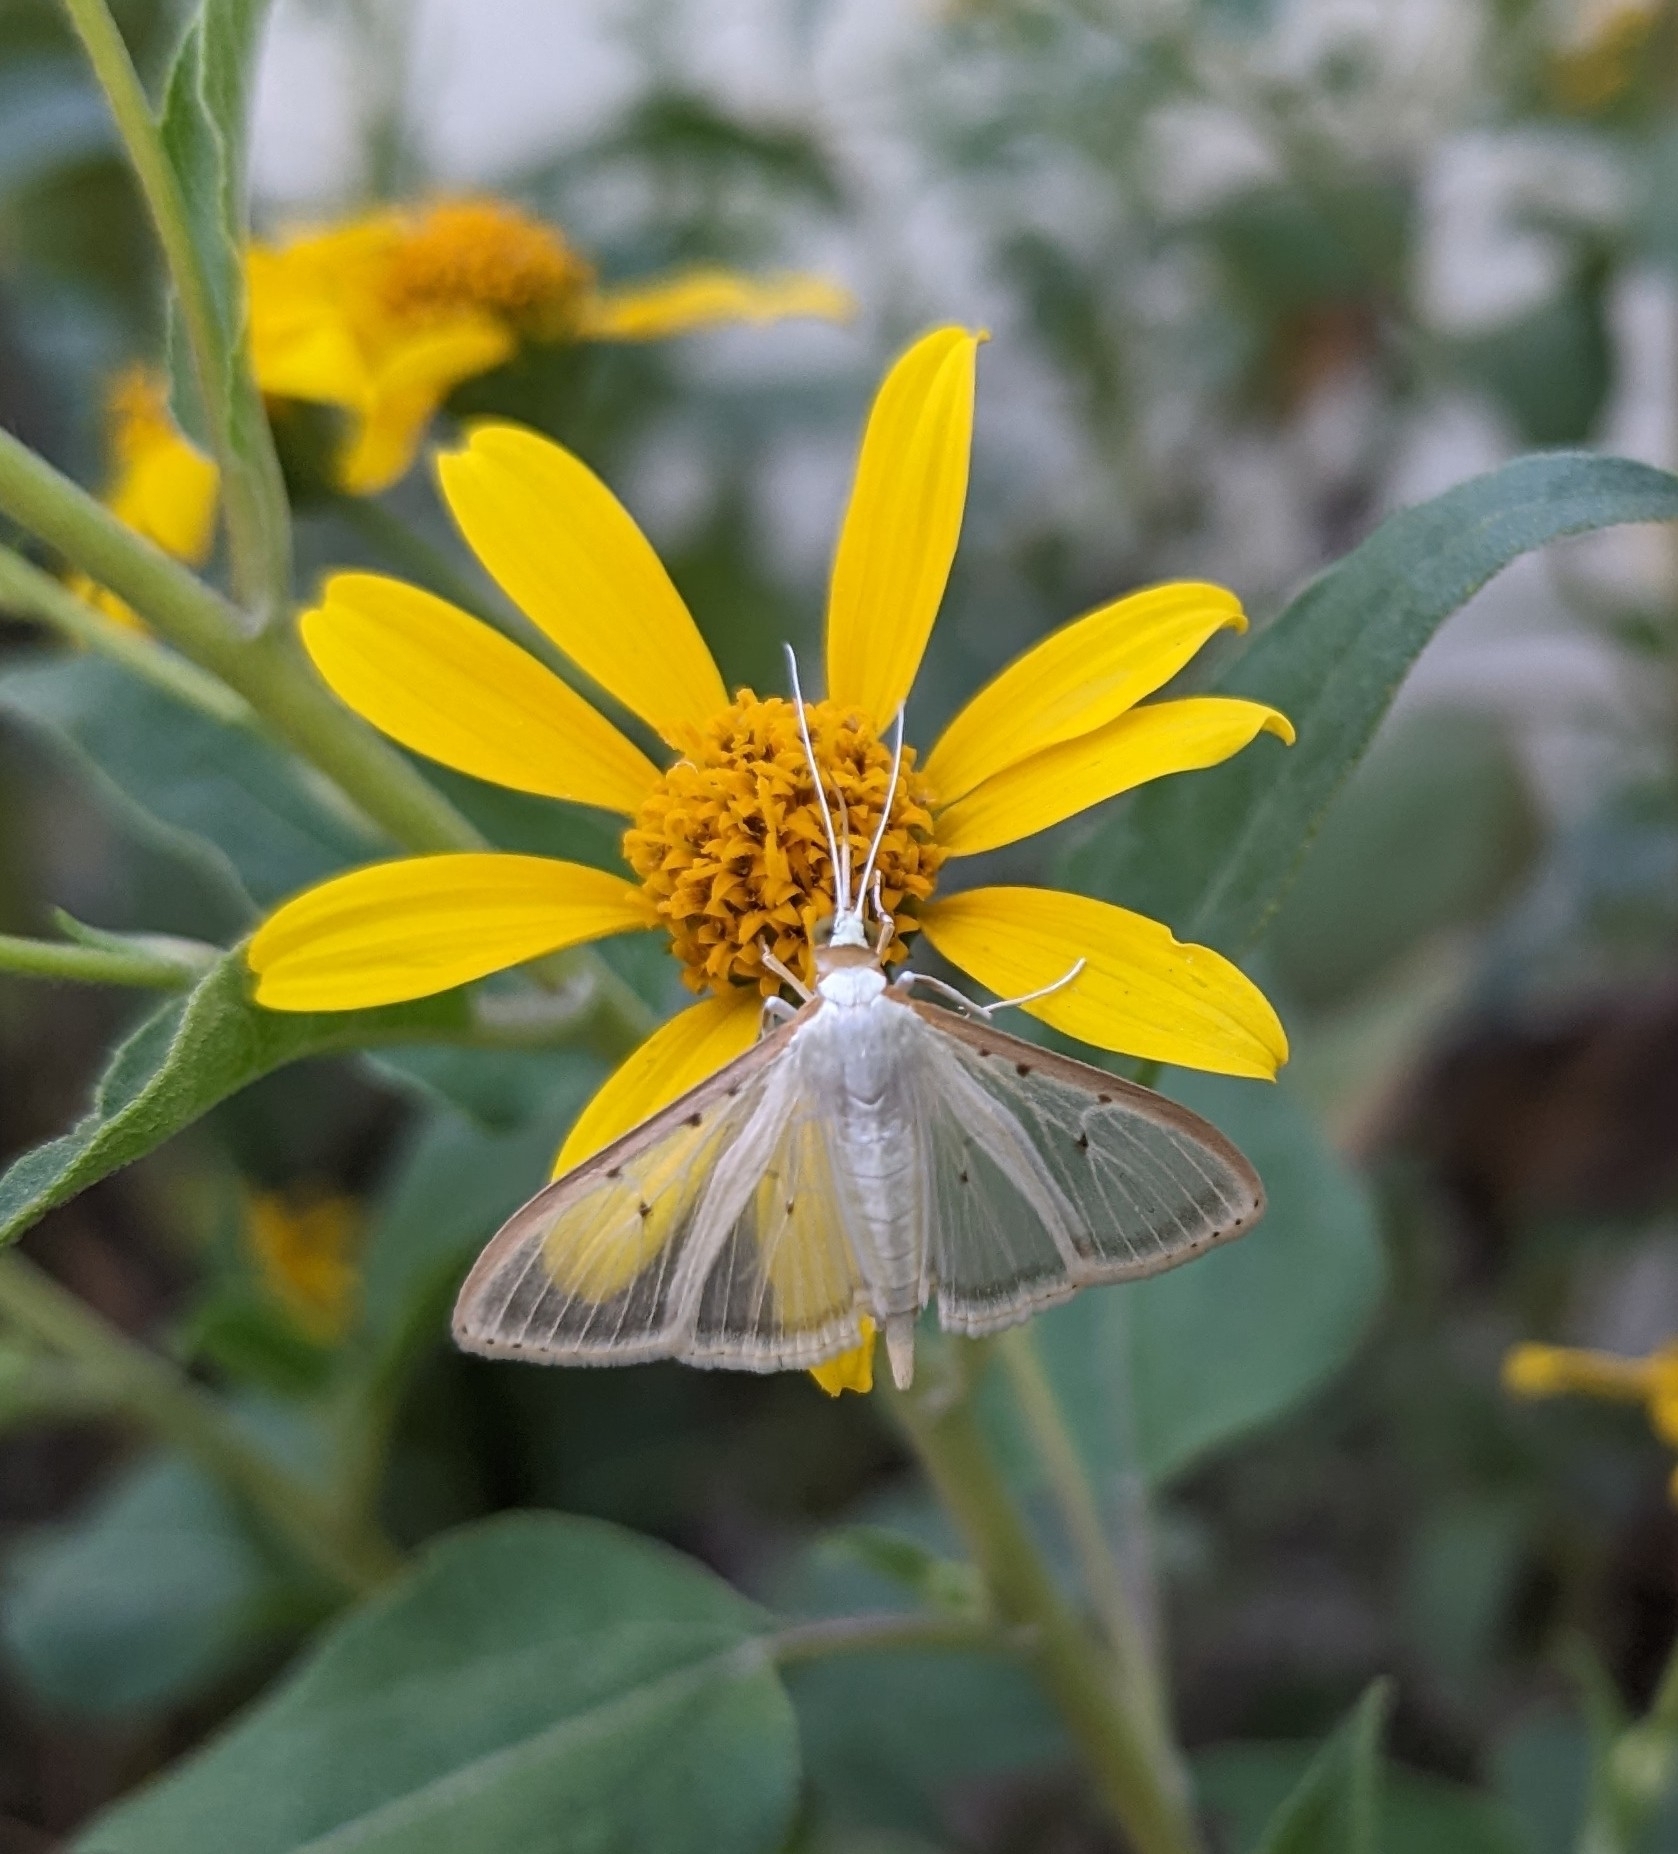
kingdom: Animalia
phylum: Arthropoda
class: Insecta
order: Lepidoptera
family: Crambidae
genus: Palpita
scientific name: Palpita quadristigmalis
